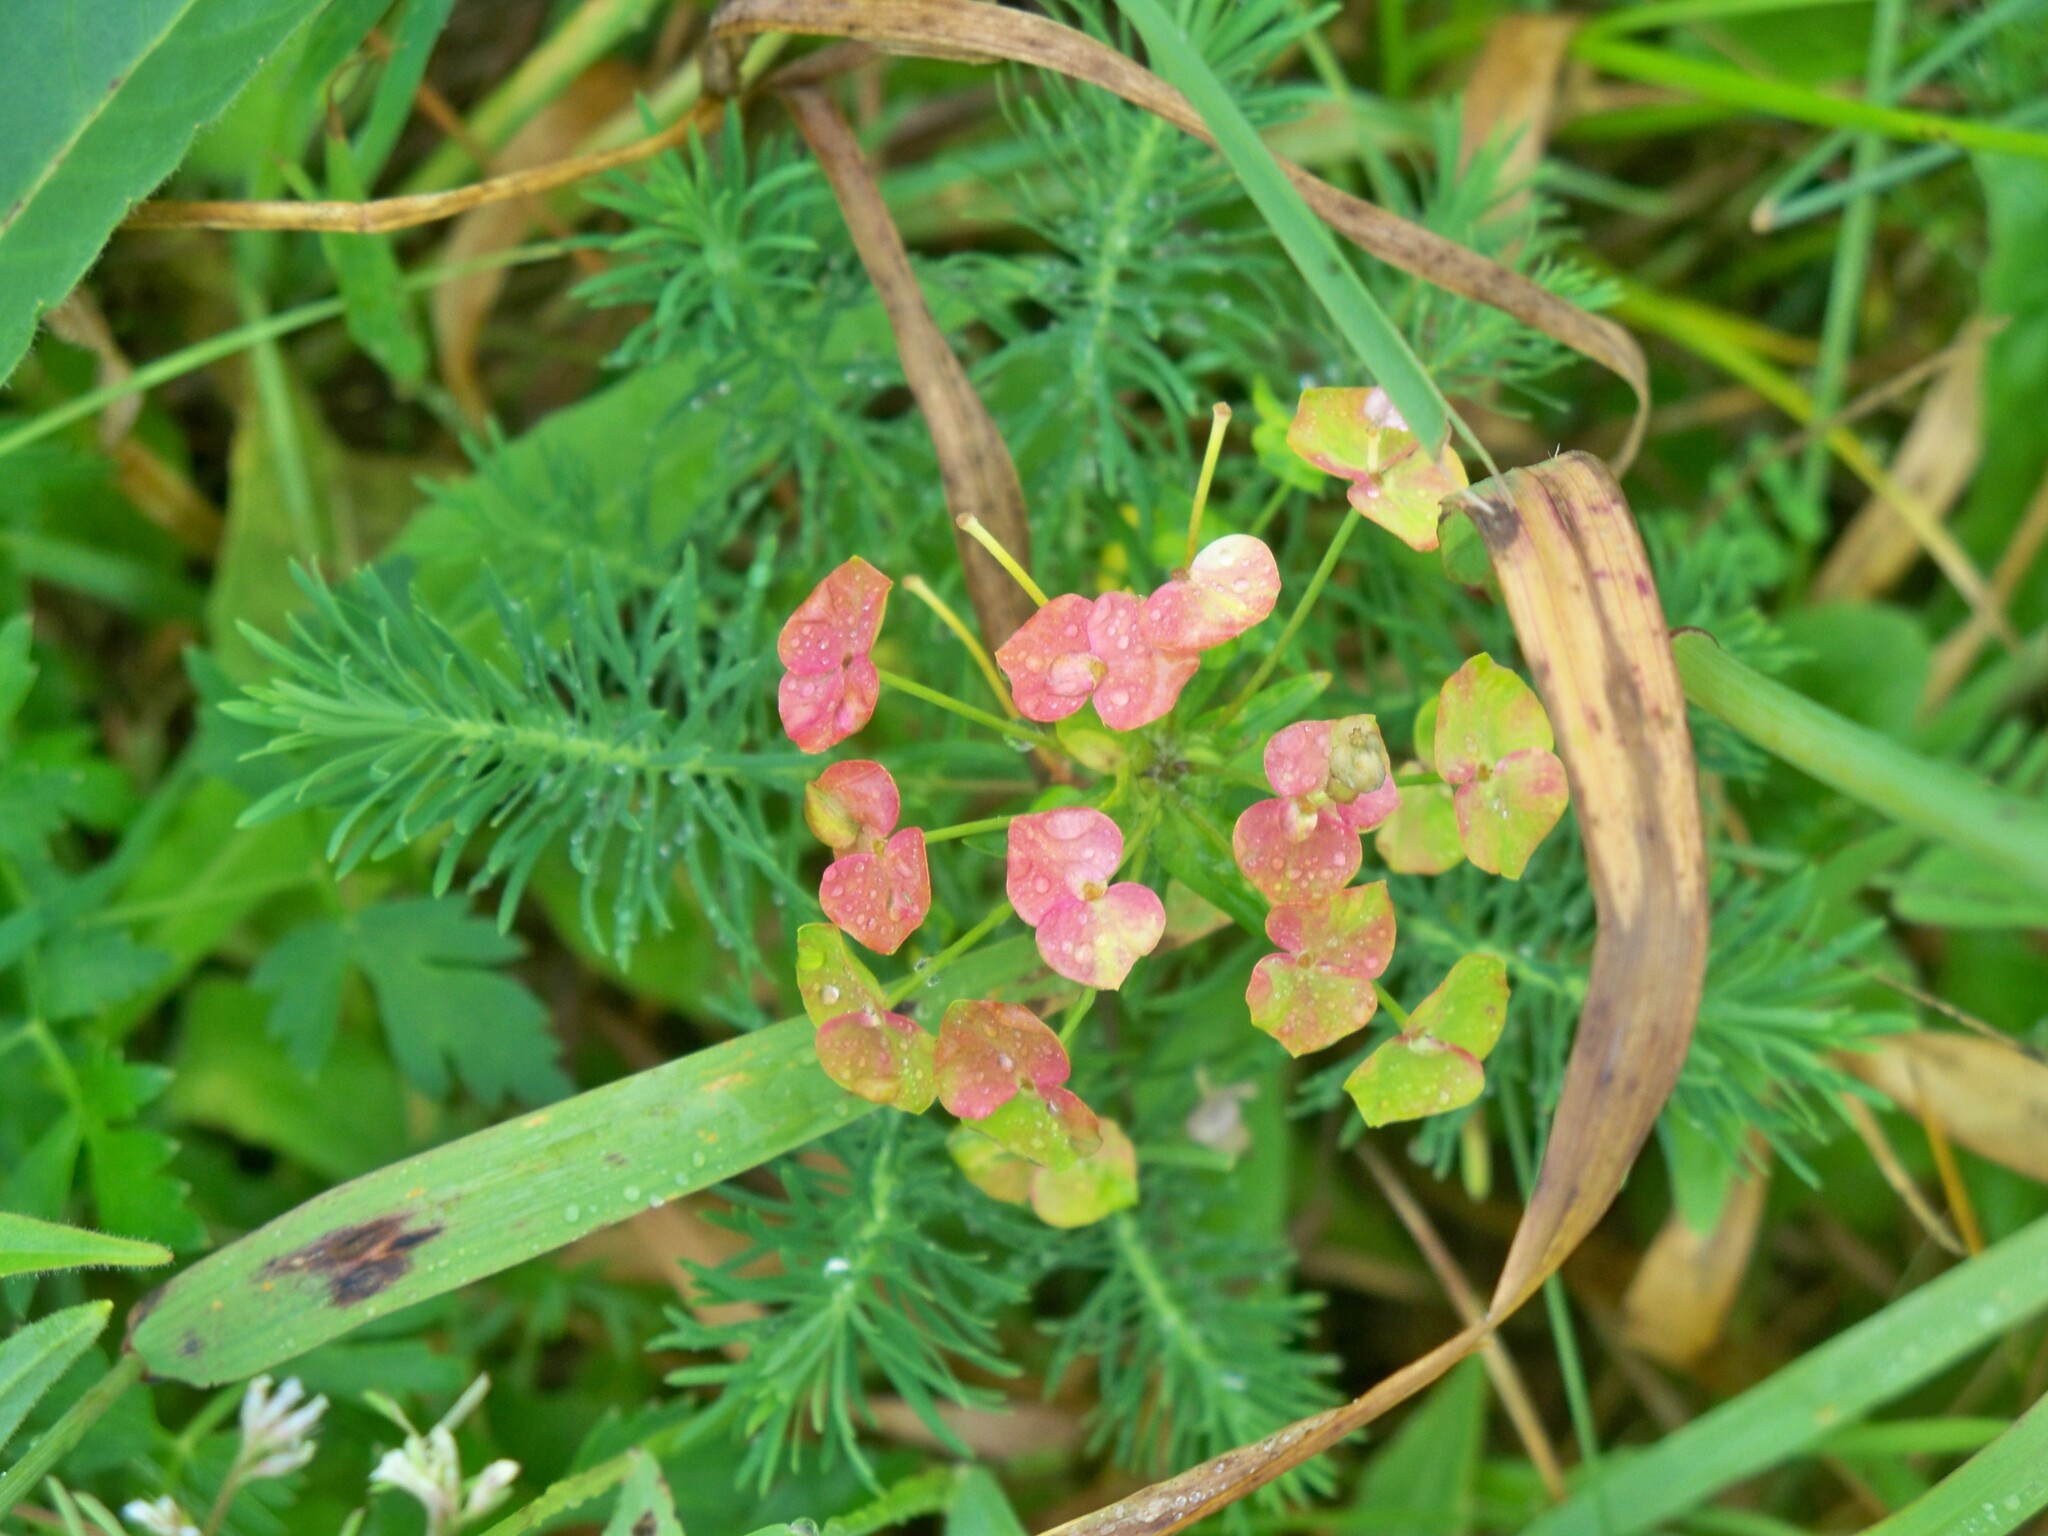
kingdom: Plantae
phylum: Tracheophyta
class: Magnoliopsida
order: Malpighiales
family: Euphorbiaceae
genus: Euphorbia
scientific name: Euphorbia cyparissias
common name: Cypress spurge
